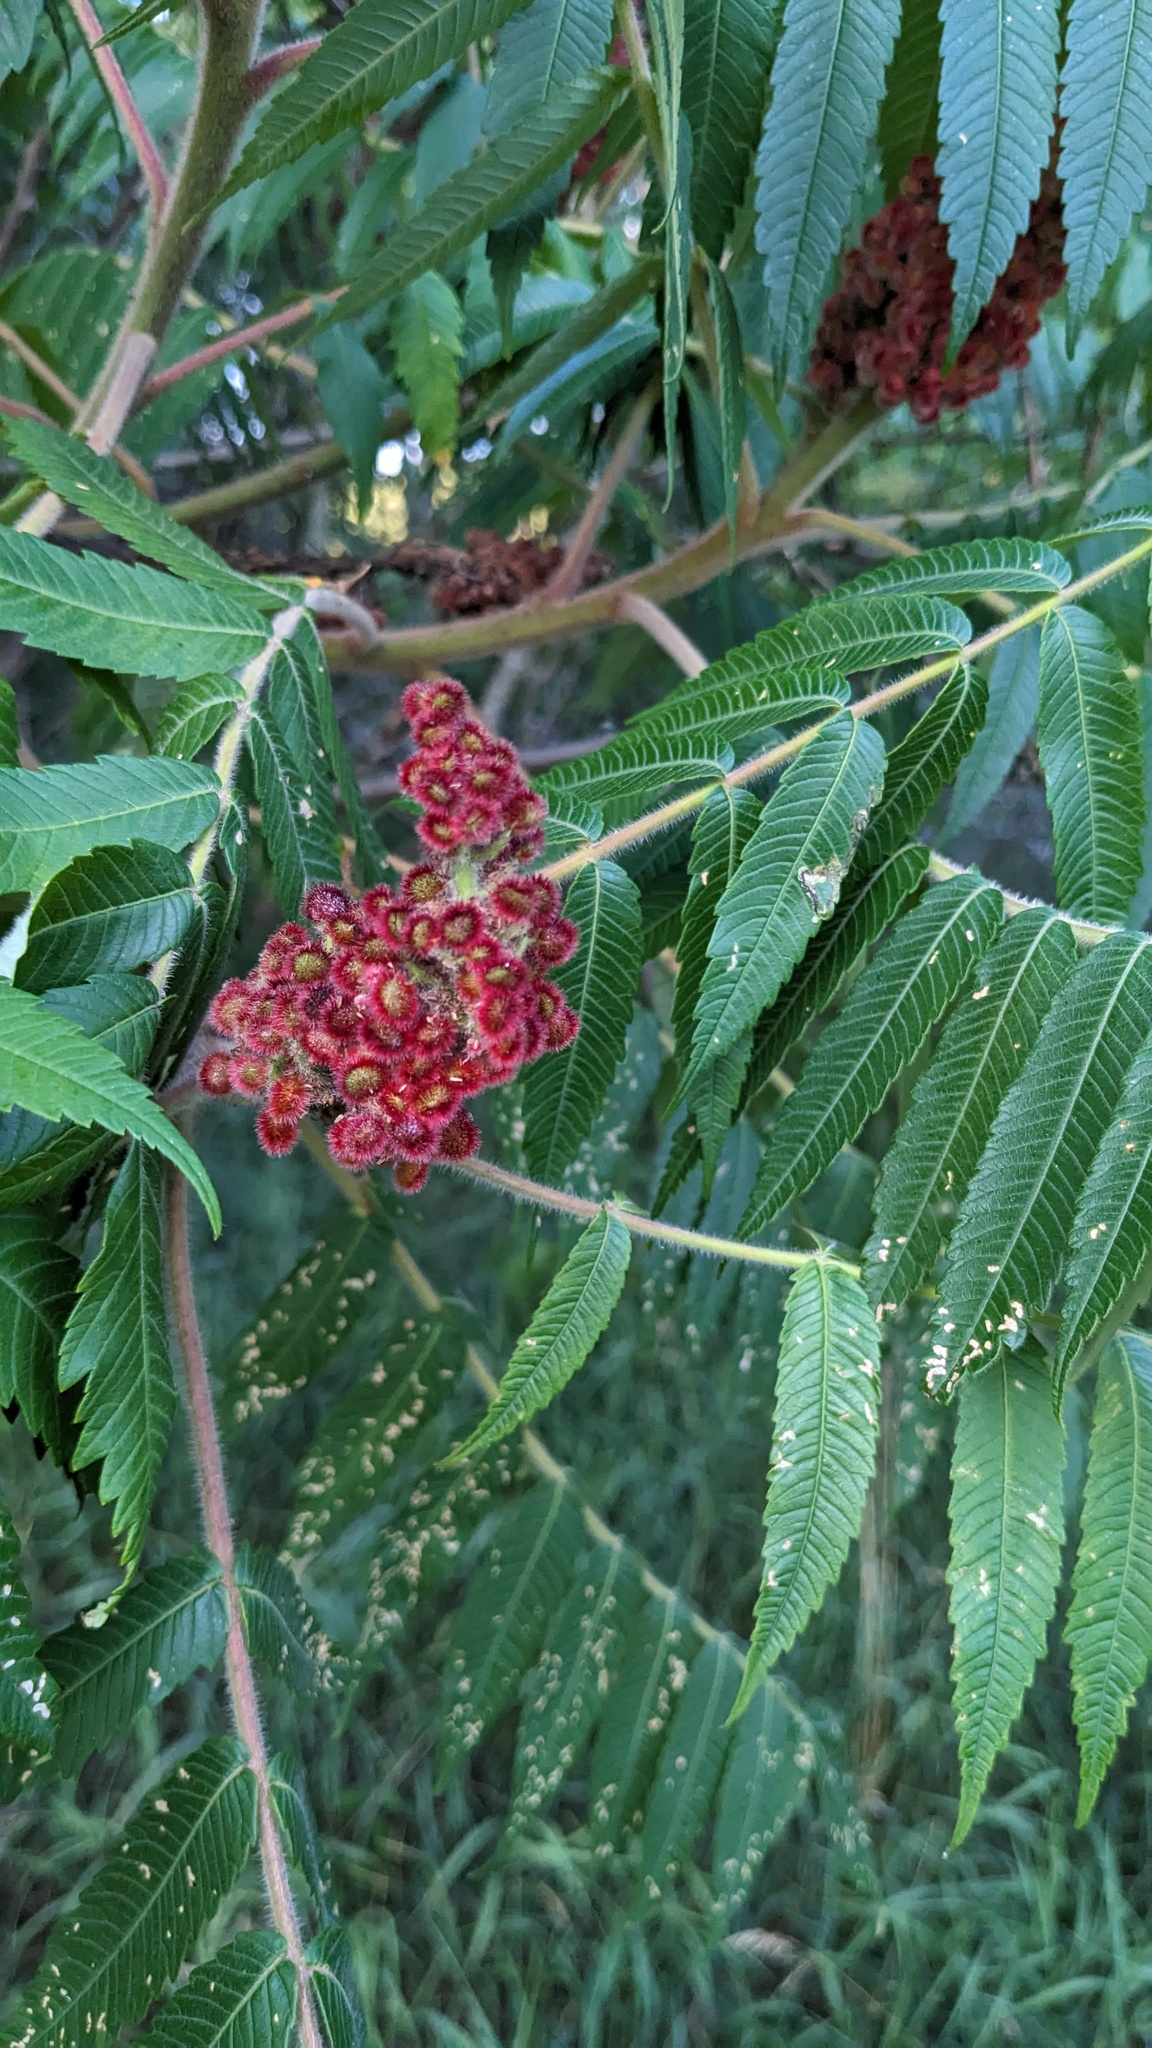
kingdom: Plantae
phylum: Tracheophyta
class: Magnoliopsida
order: Sapindales
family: Anacardiaceae
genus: Rhus
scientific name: Rhus typhina
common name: Staghorn sumac
